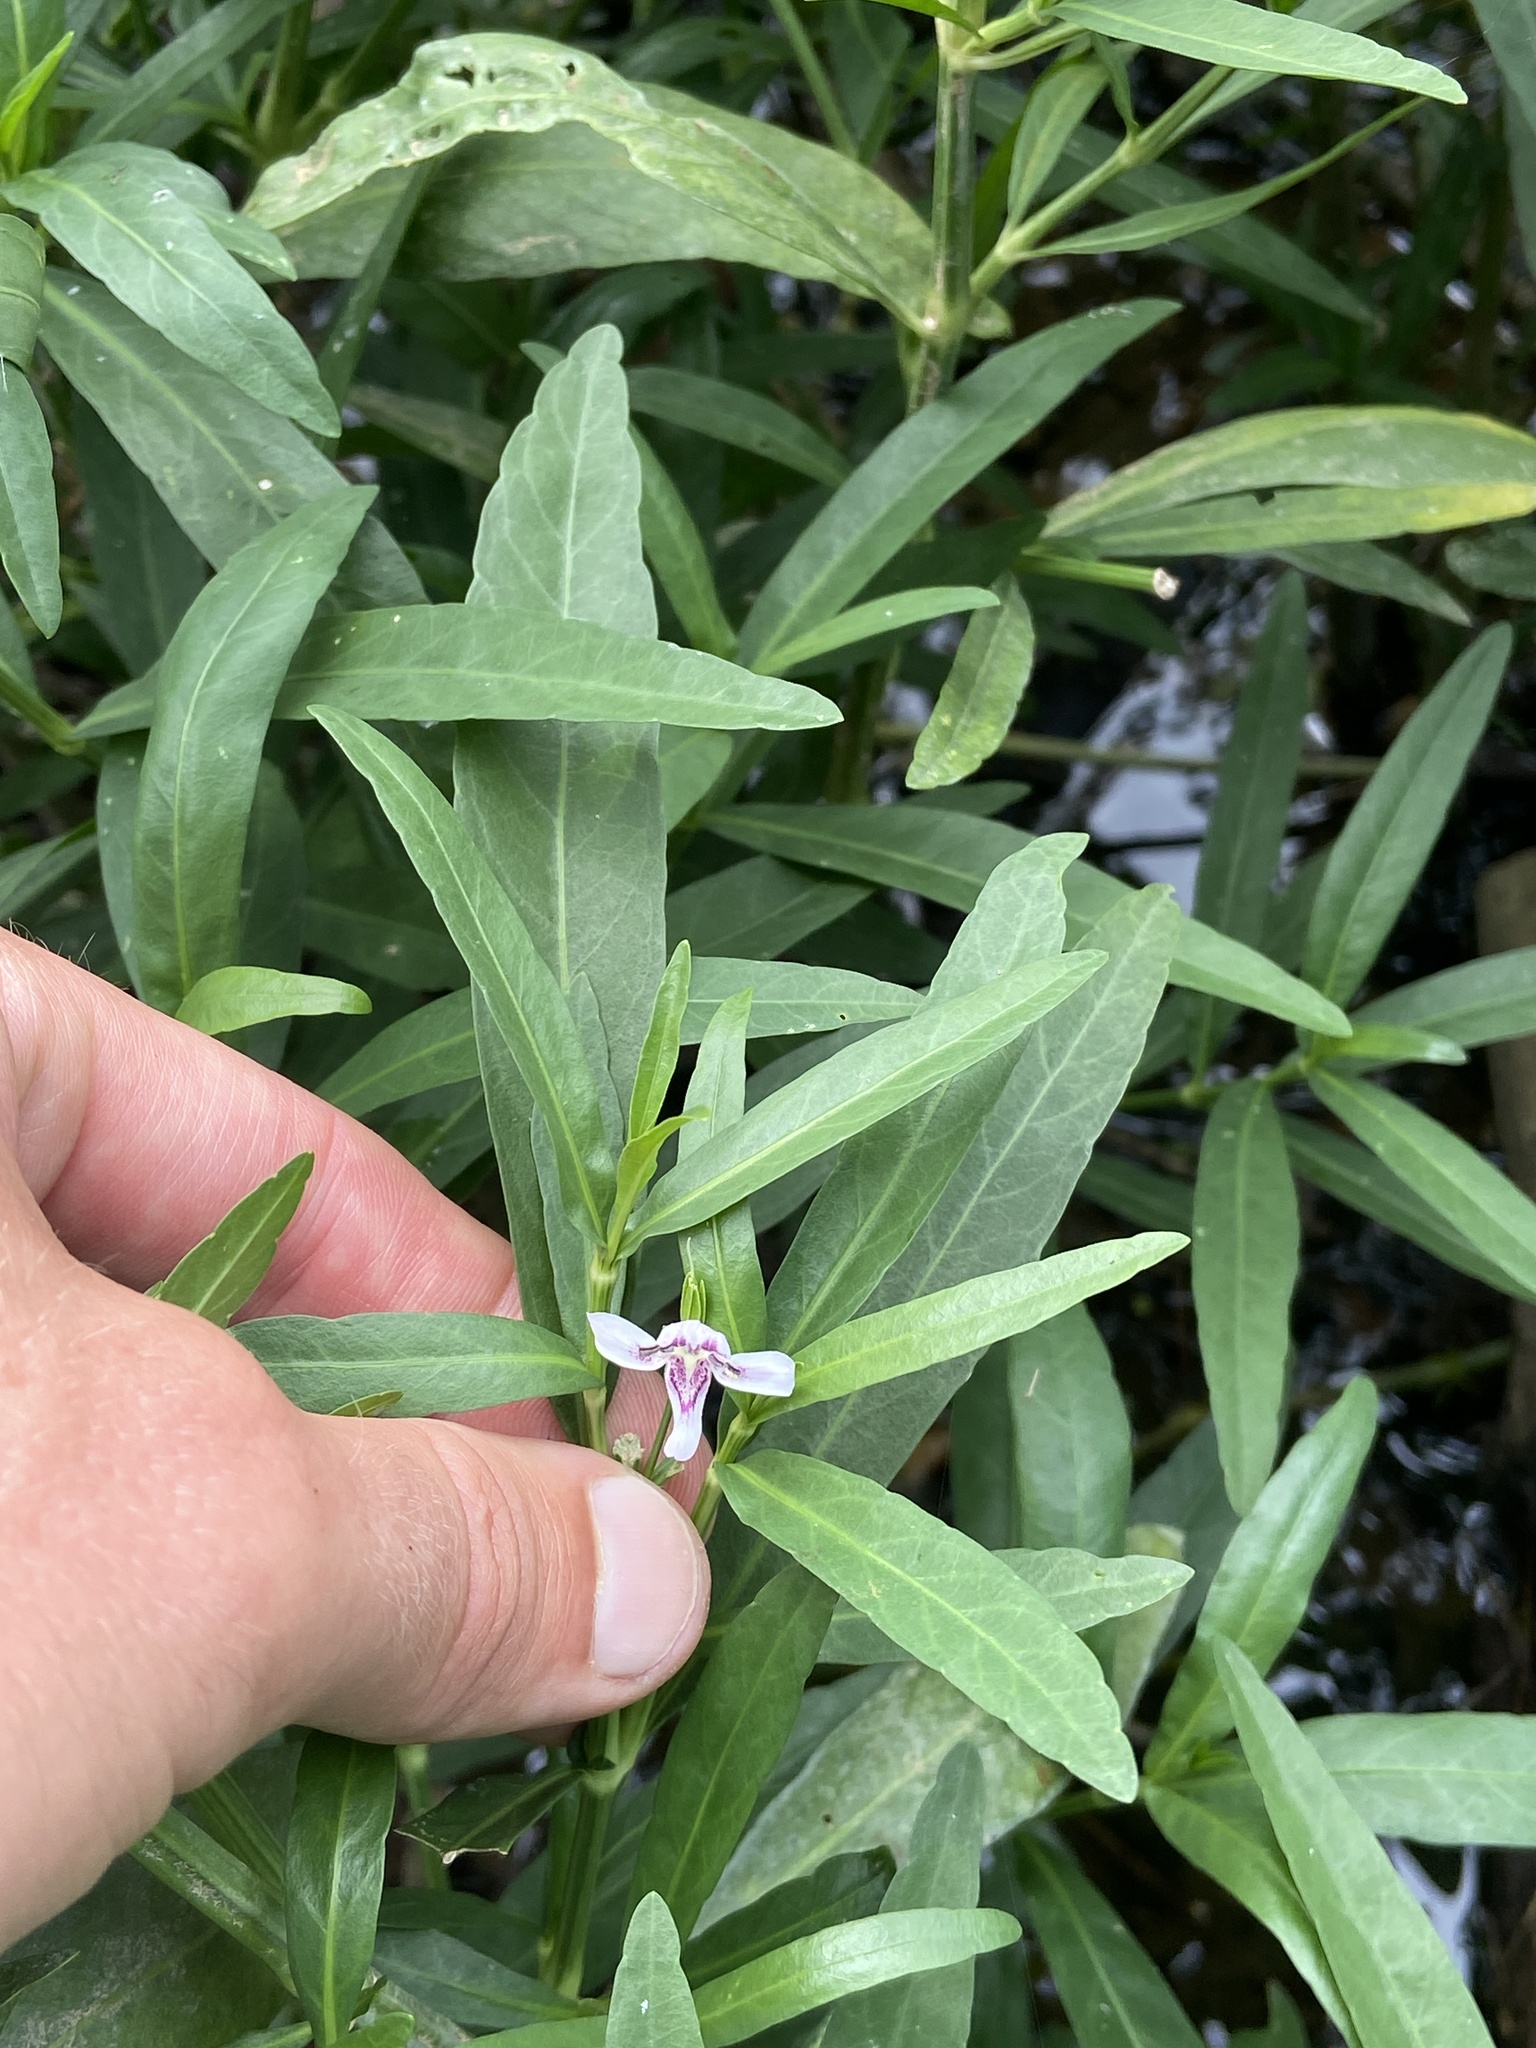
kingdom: Plantae
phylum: Tracheophyta
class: Magnoliopsida
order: Lamiales
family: Acanthaceae
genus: Dianthera
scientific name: Dianthera americana
